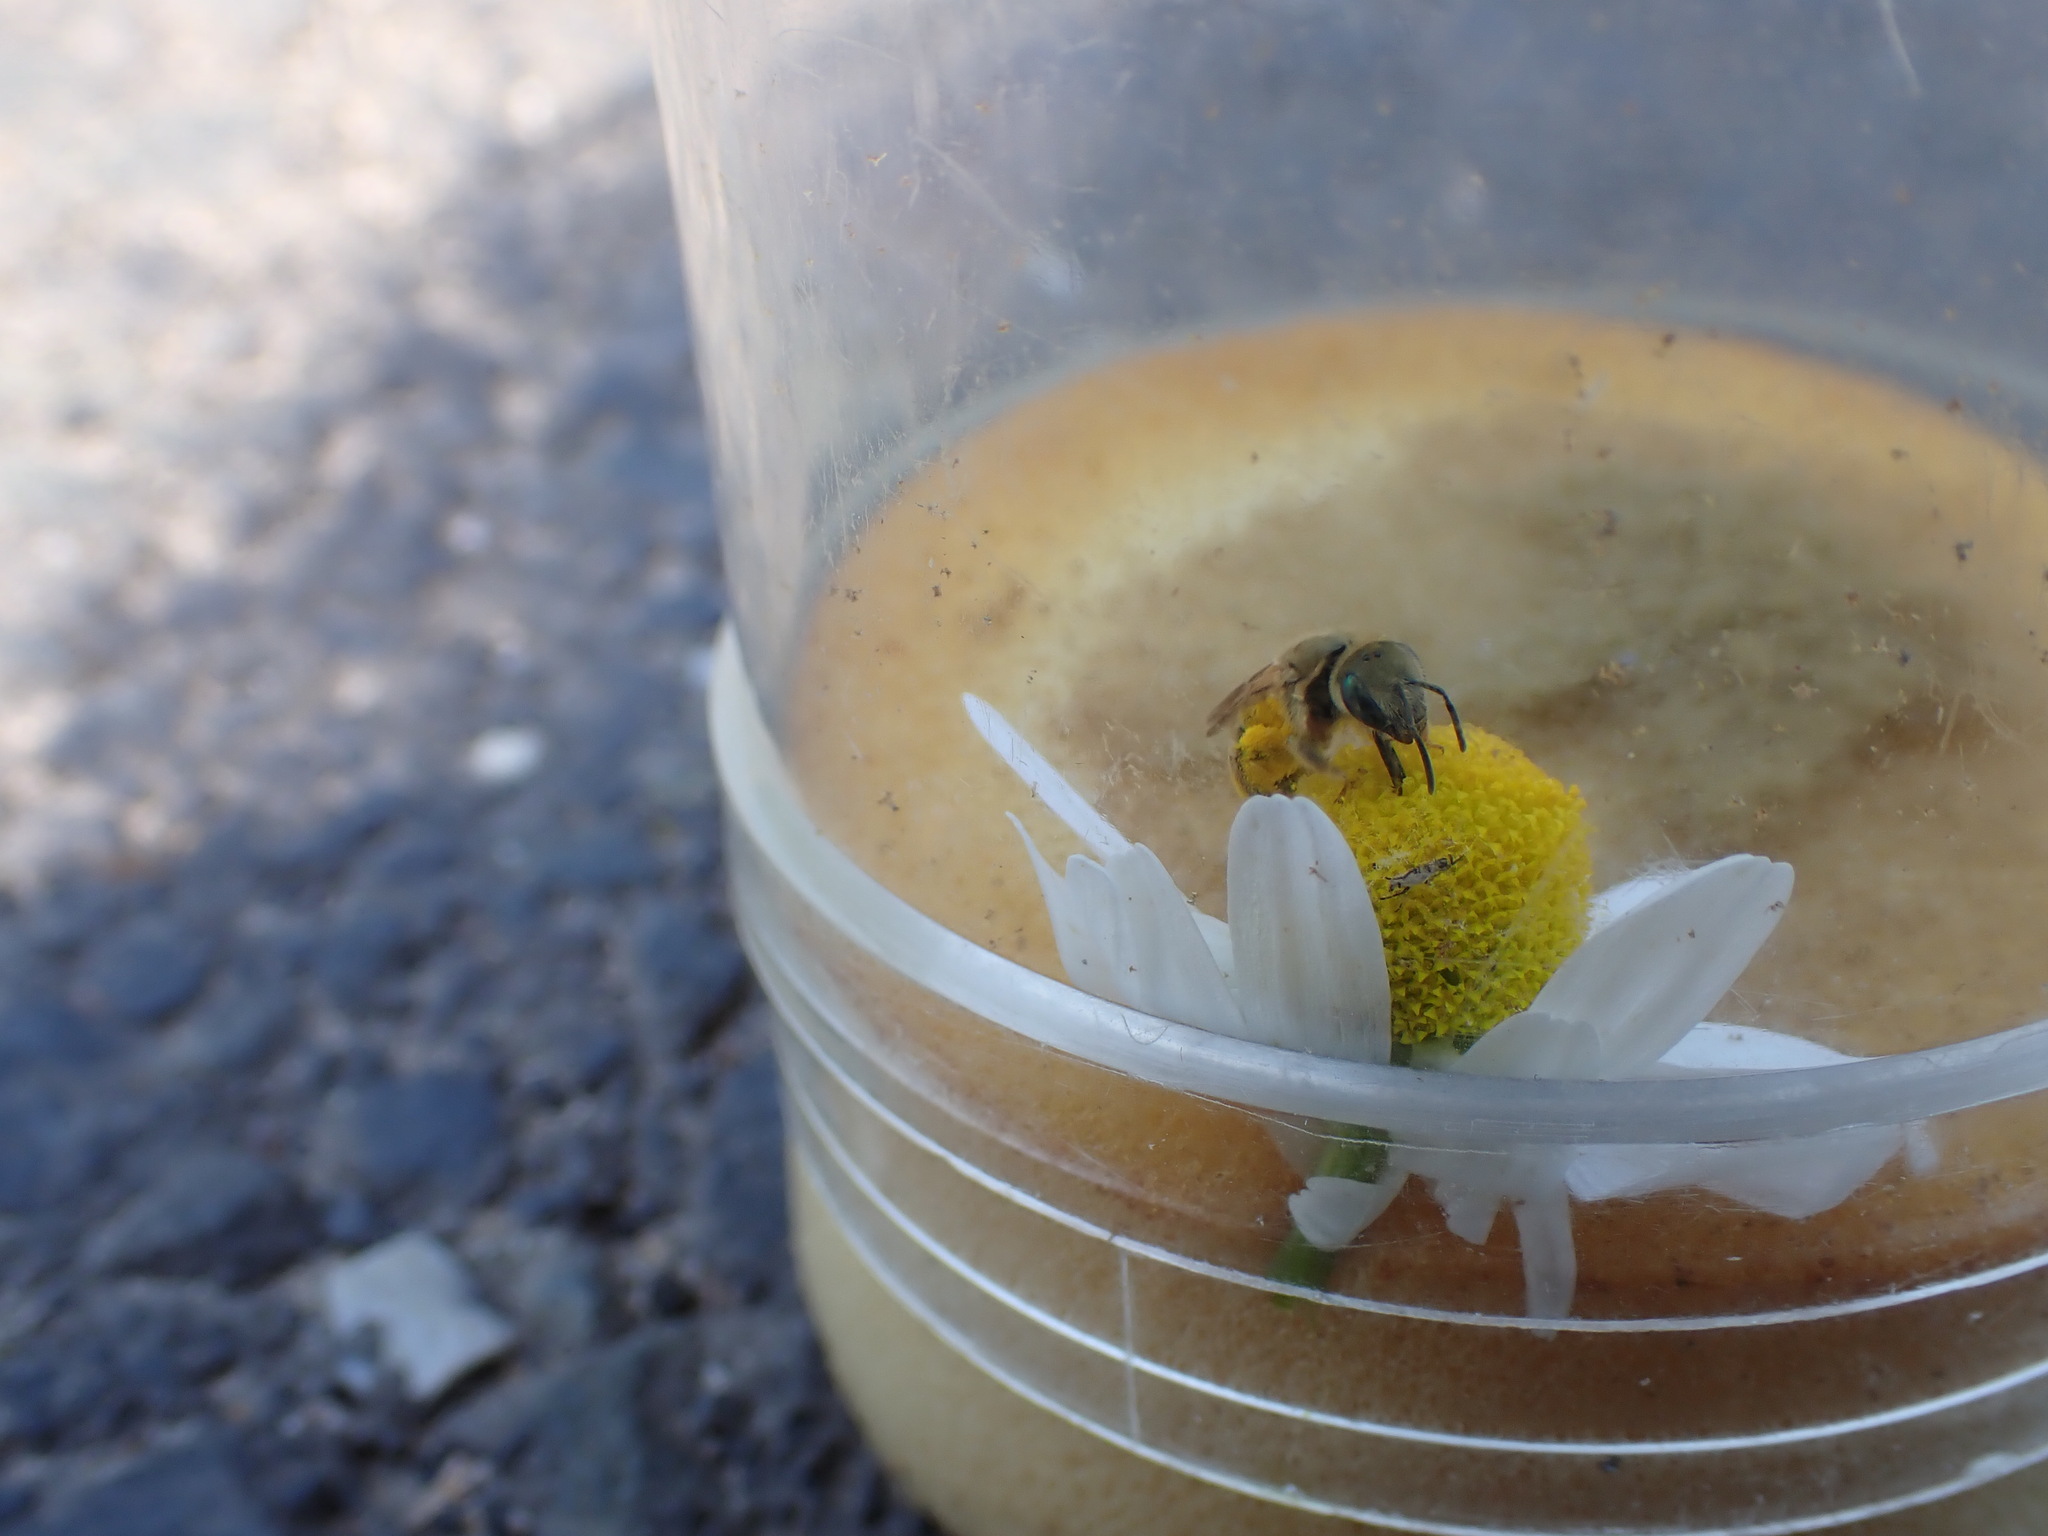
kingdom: Animalia
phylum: Arthropoda
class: Insecta
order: Hymenoptera
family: Halictidae
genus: Seladonia
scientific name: Seladonia
